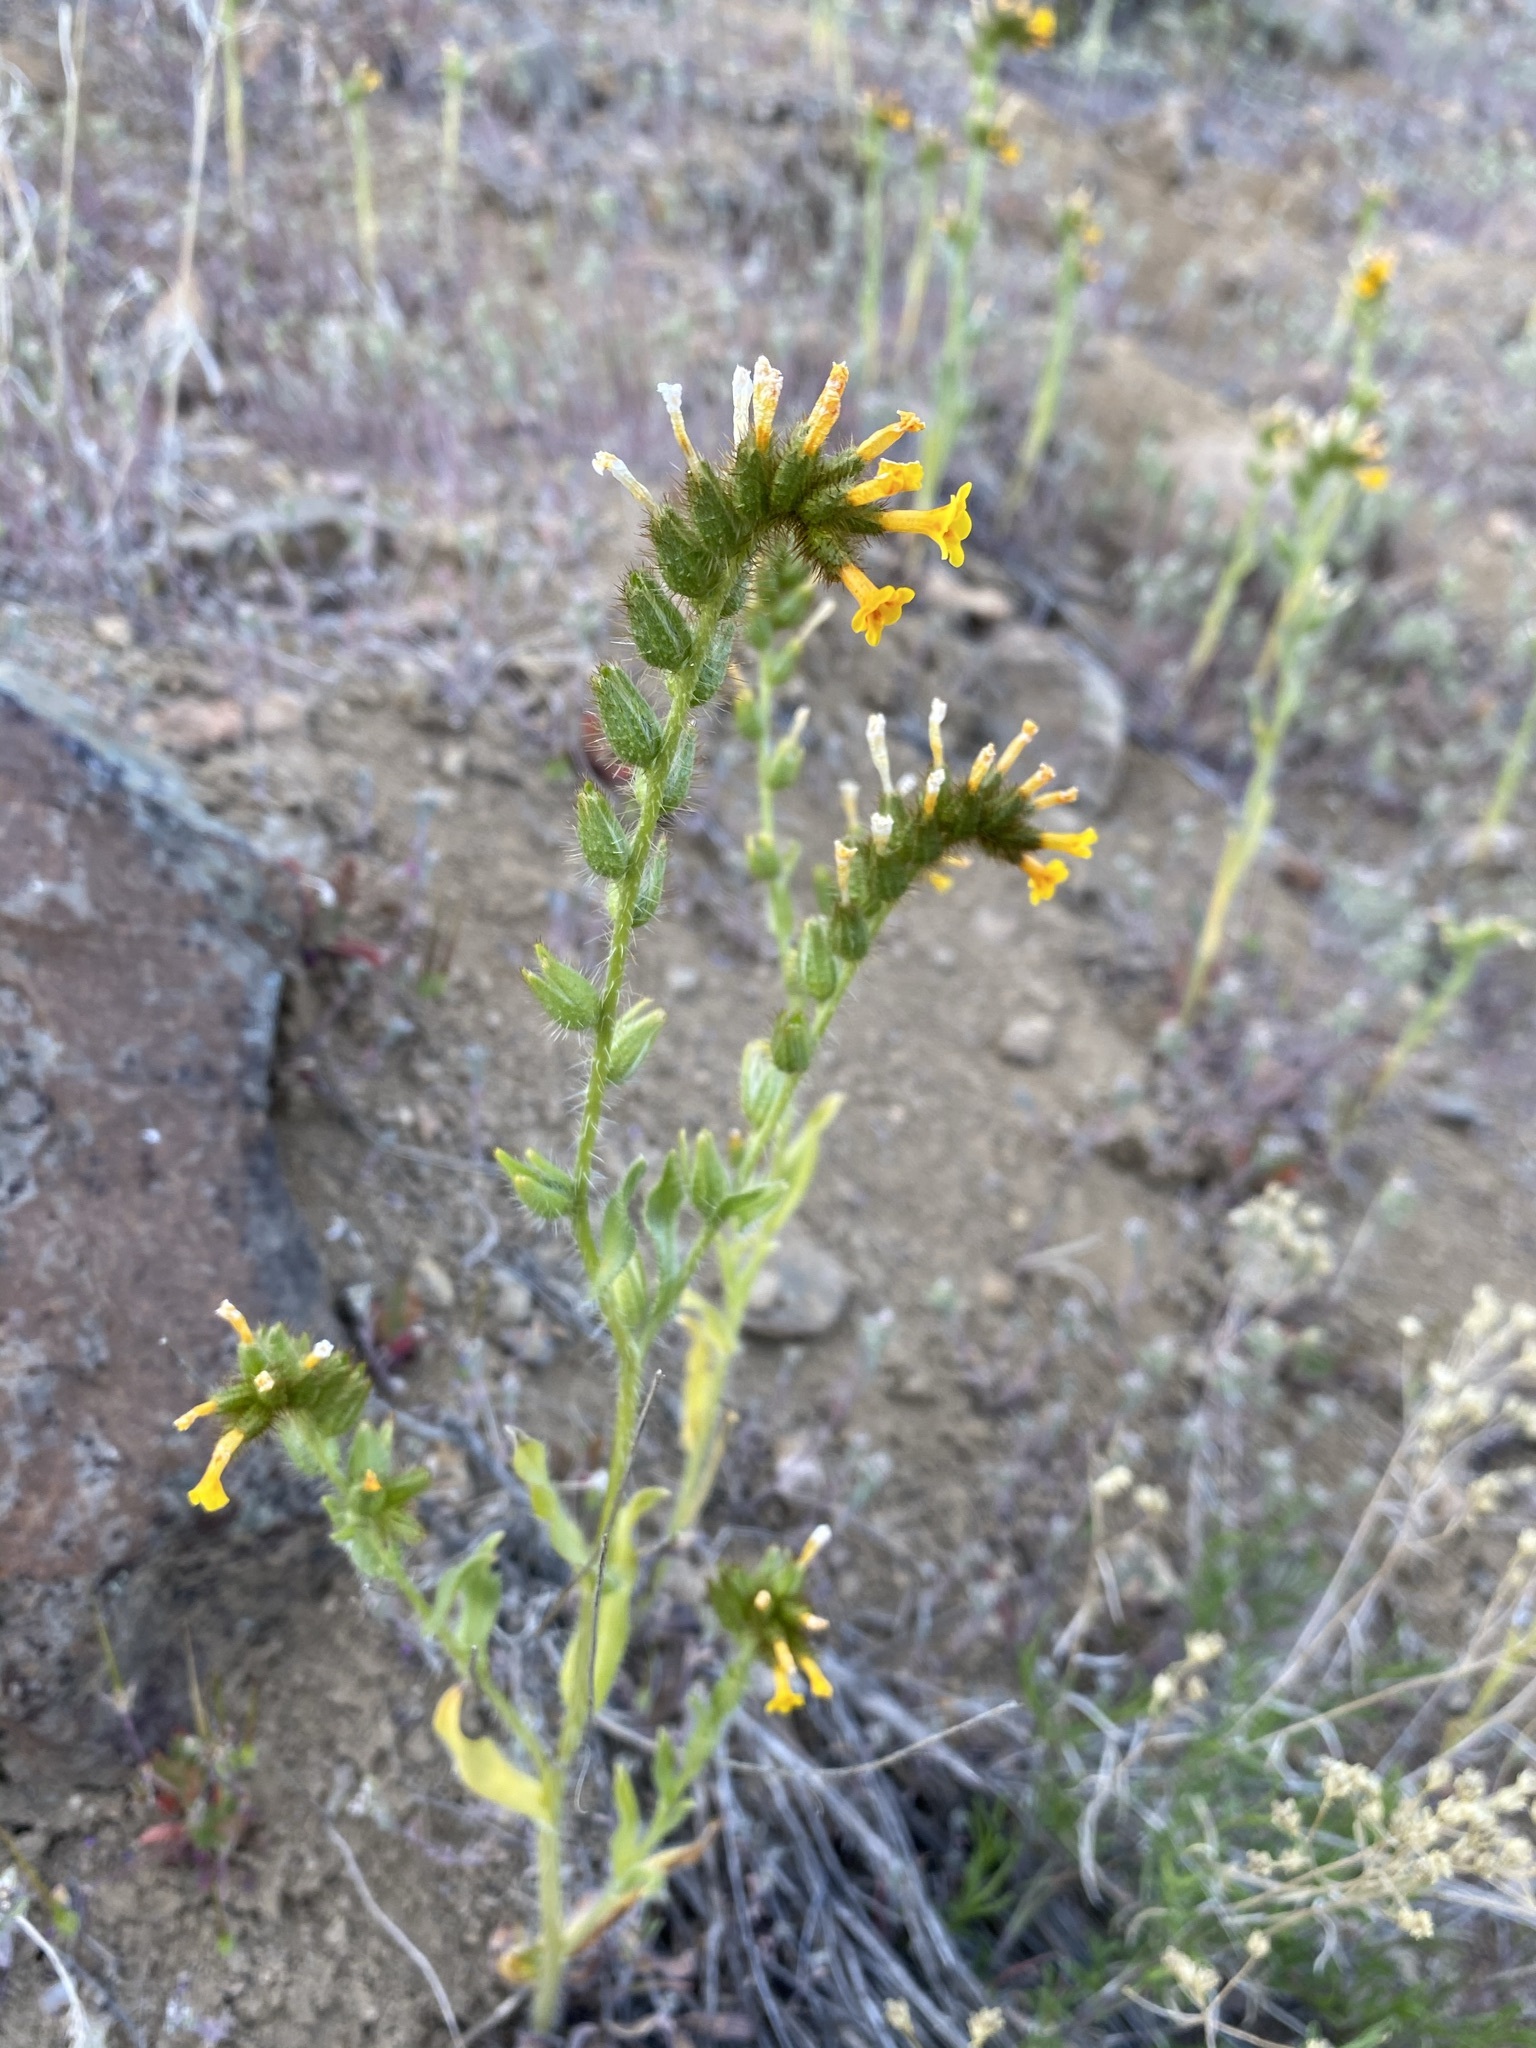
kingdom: Plantae
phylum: Tracheophyta
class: Magnoliopsida
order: Boraginales
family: Boraginaceae
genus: Amsinckia
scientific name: Amsinckia tessellata
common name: Tessellate fiddleneck
